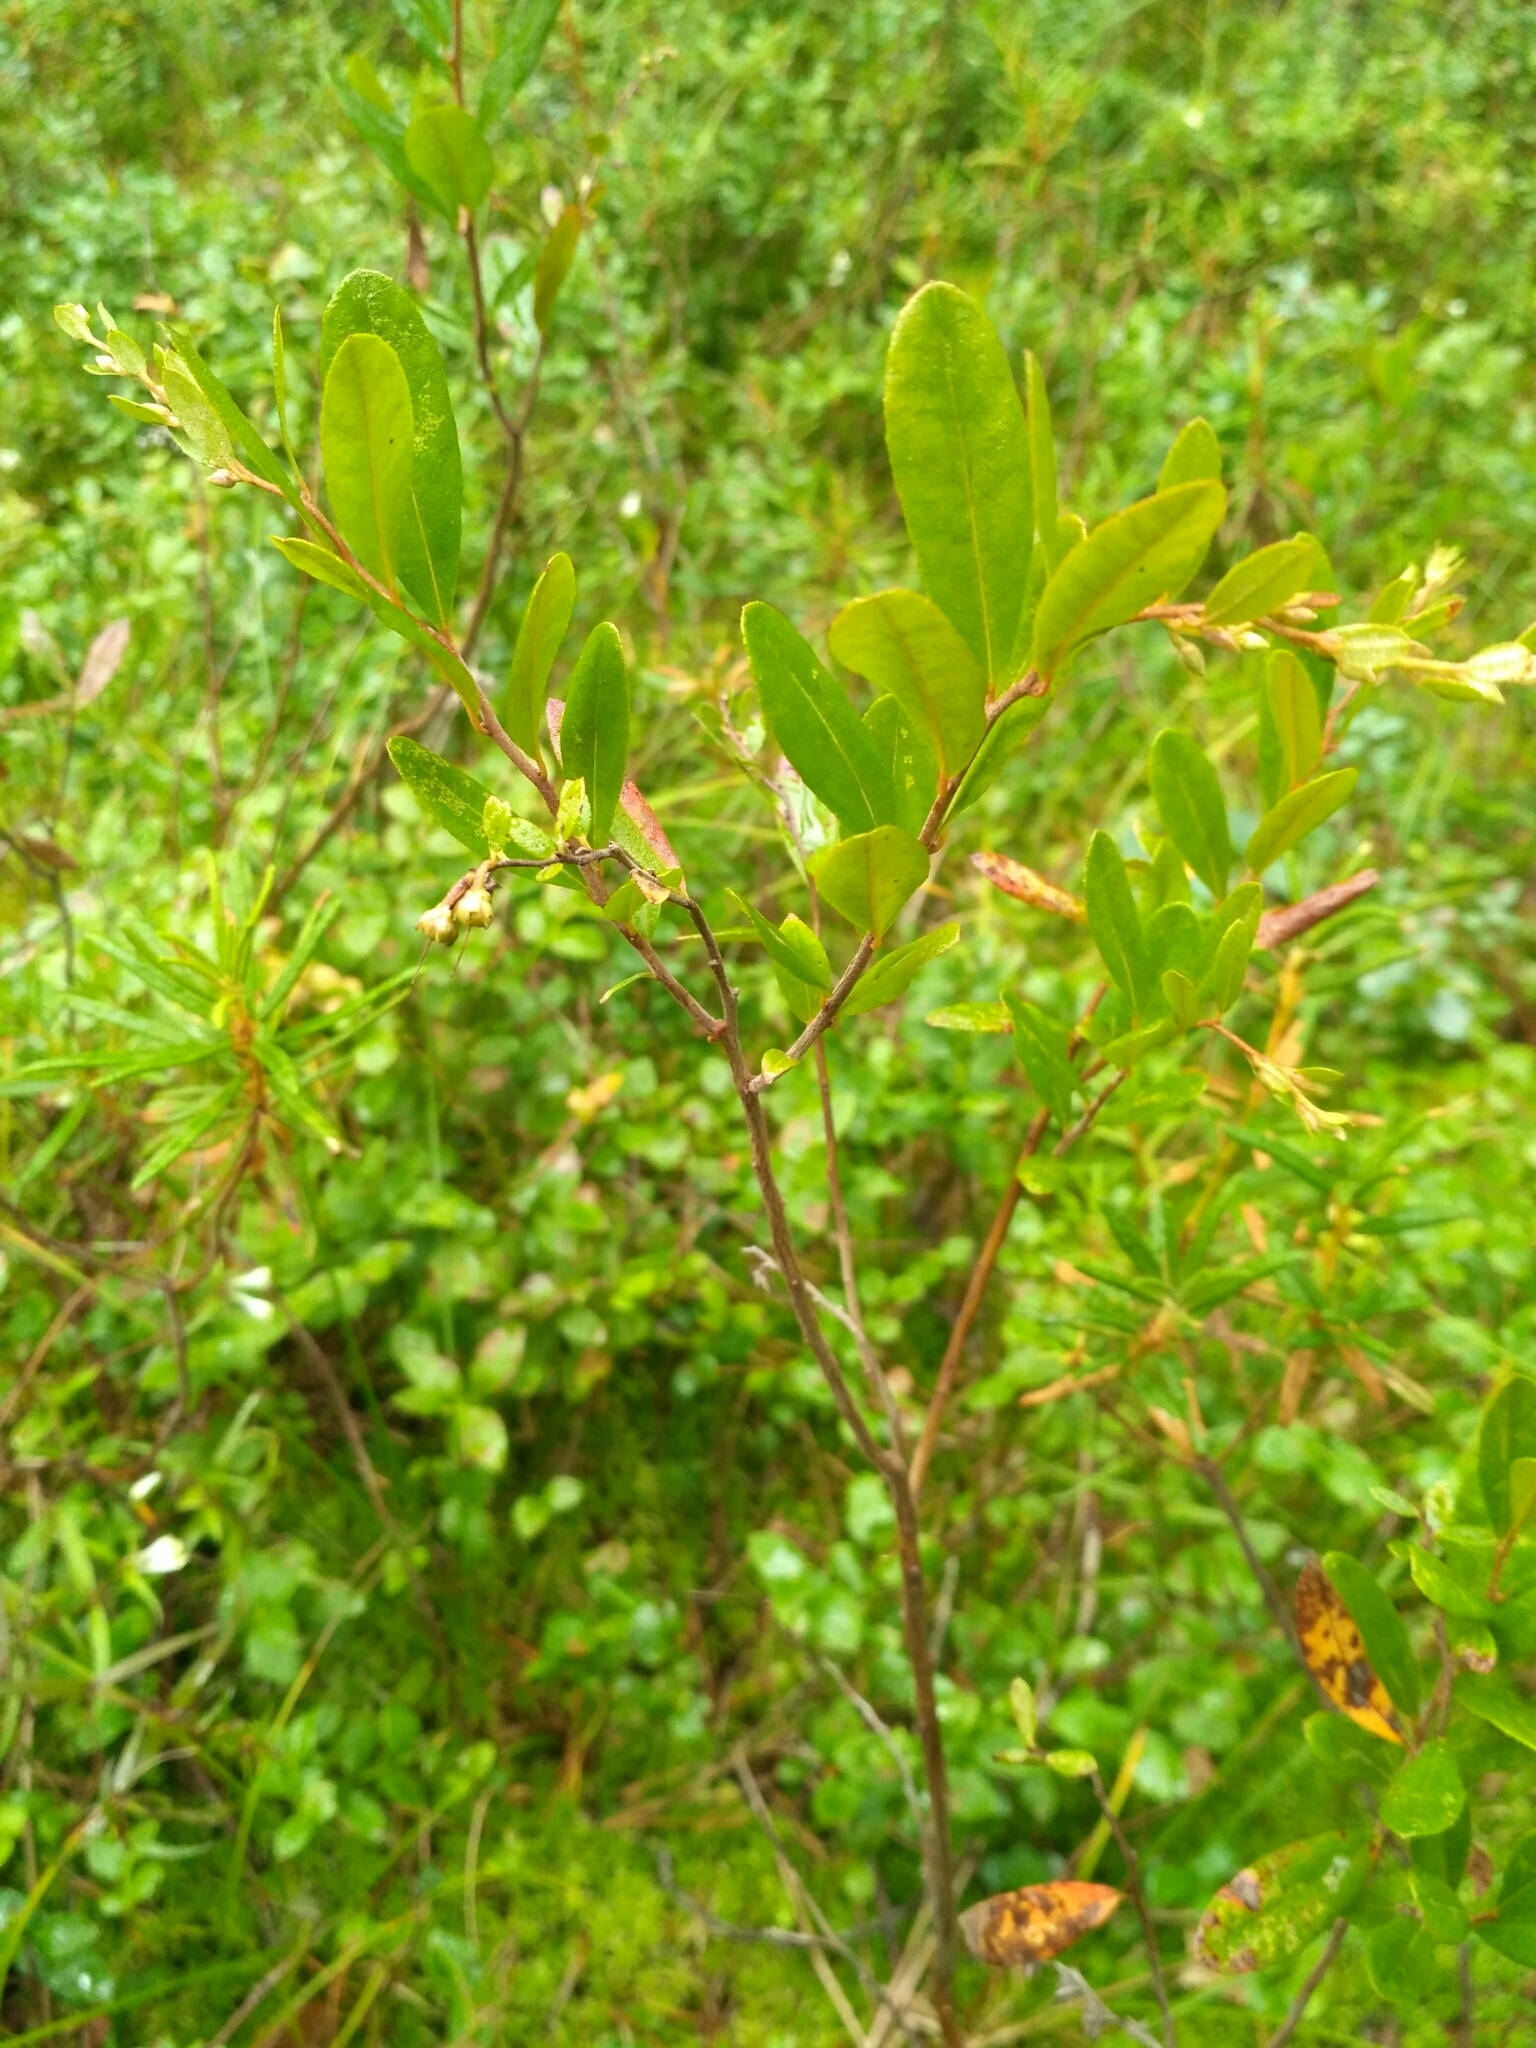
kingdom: Plantae
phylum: Tracheophyta
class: Magnoliopsida
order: Ericales
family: Ericaceae
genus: Chamaedaphne
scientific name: Chamaedaphne calyculata
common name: Leatherleaf
